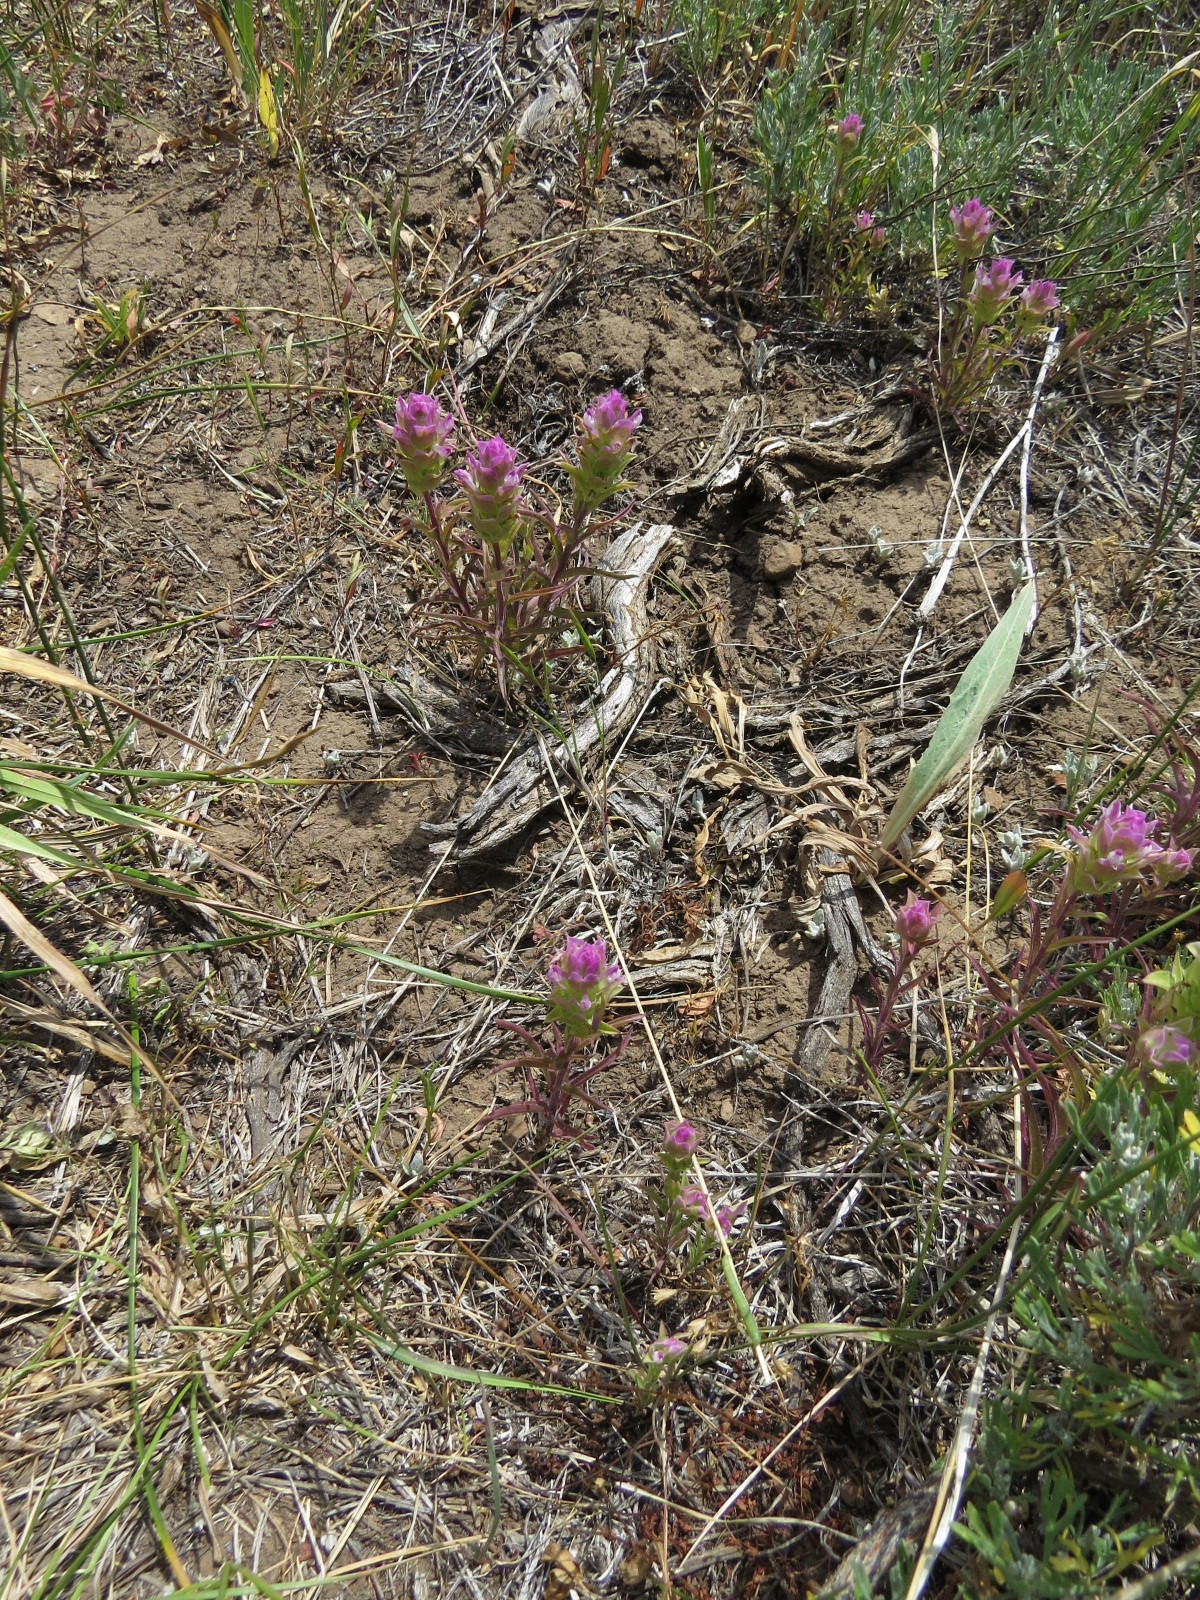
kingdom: Plantae
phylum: Tracheophyta
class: Magnoliopsida
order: Lamiales
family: Orobanchaceae
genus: Orthocarpus
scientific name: Orthocarpus cuspidatus
